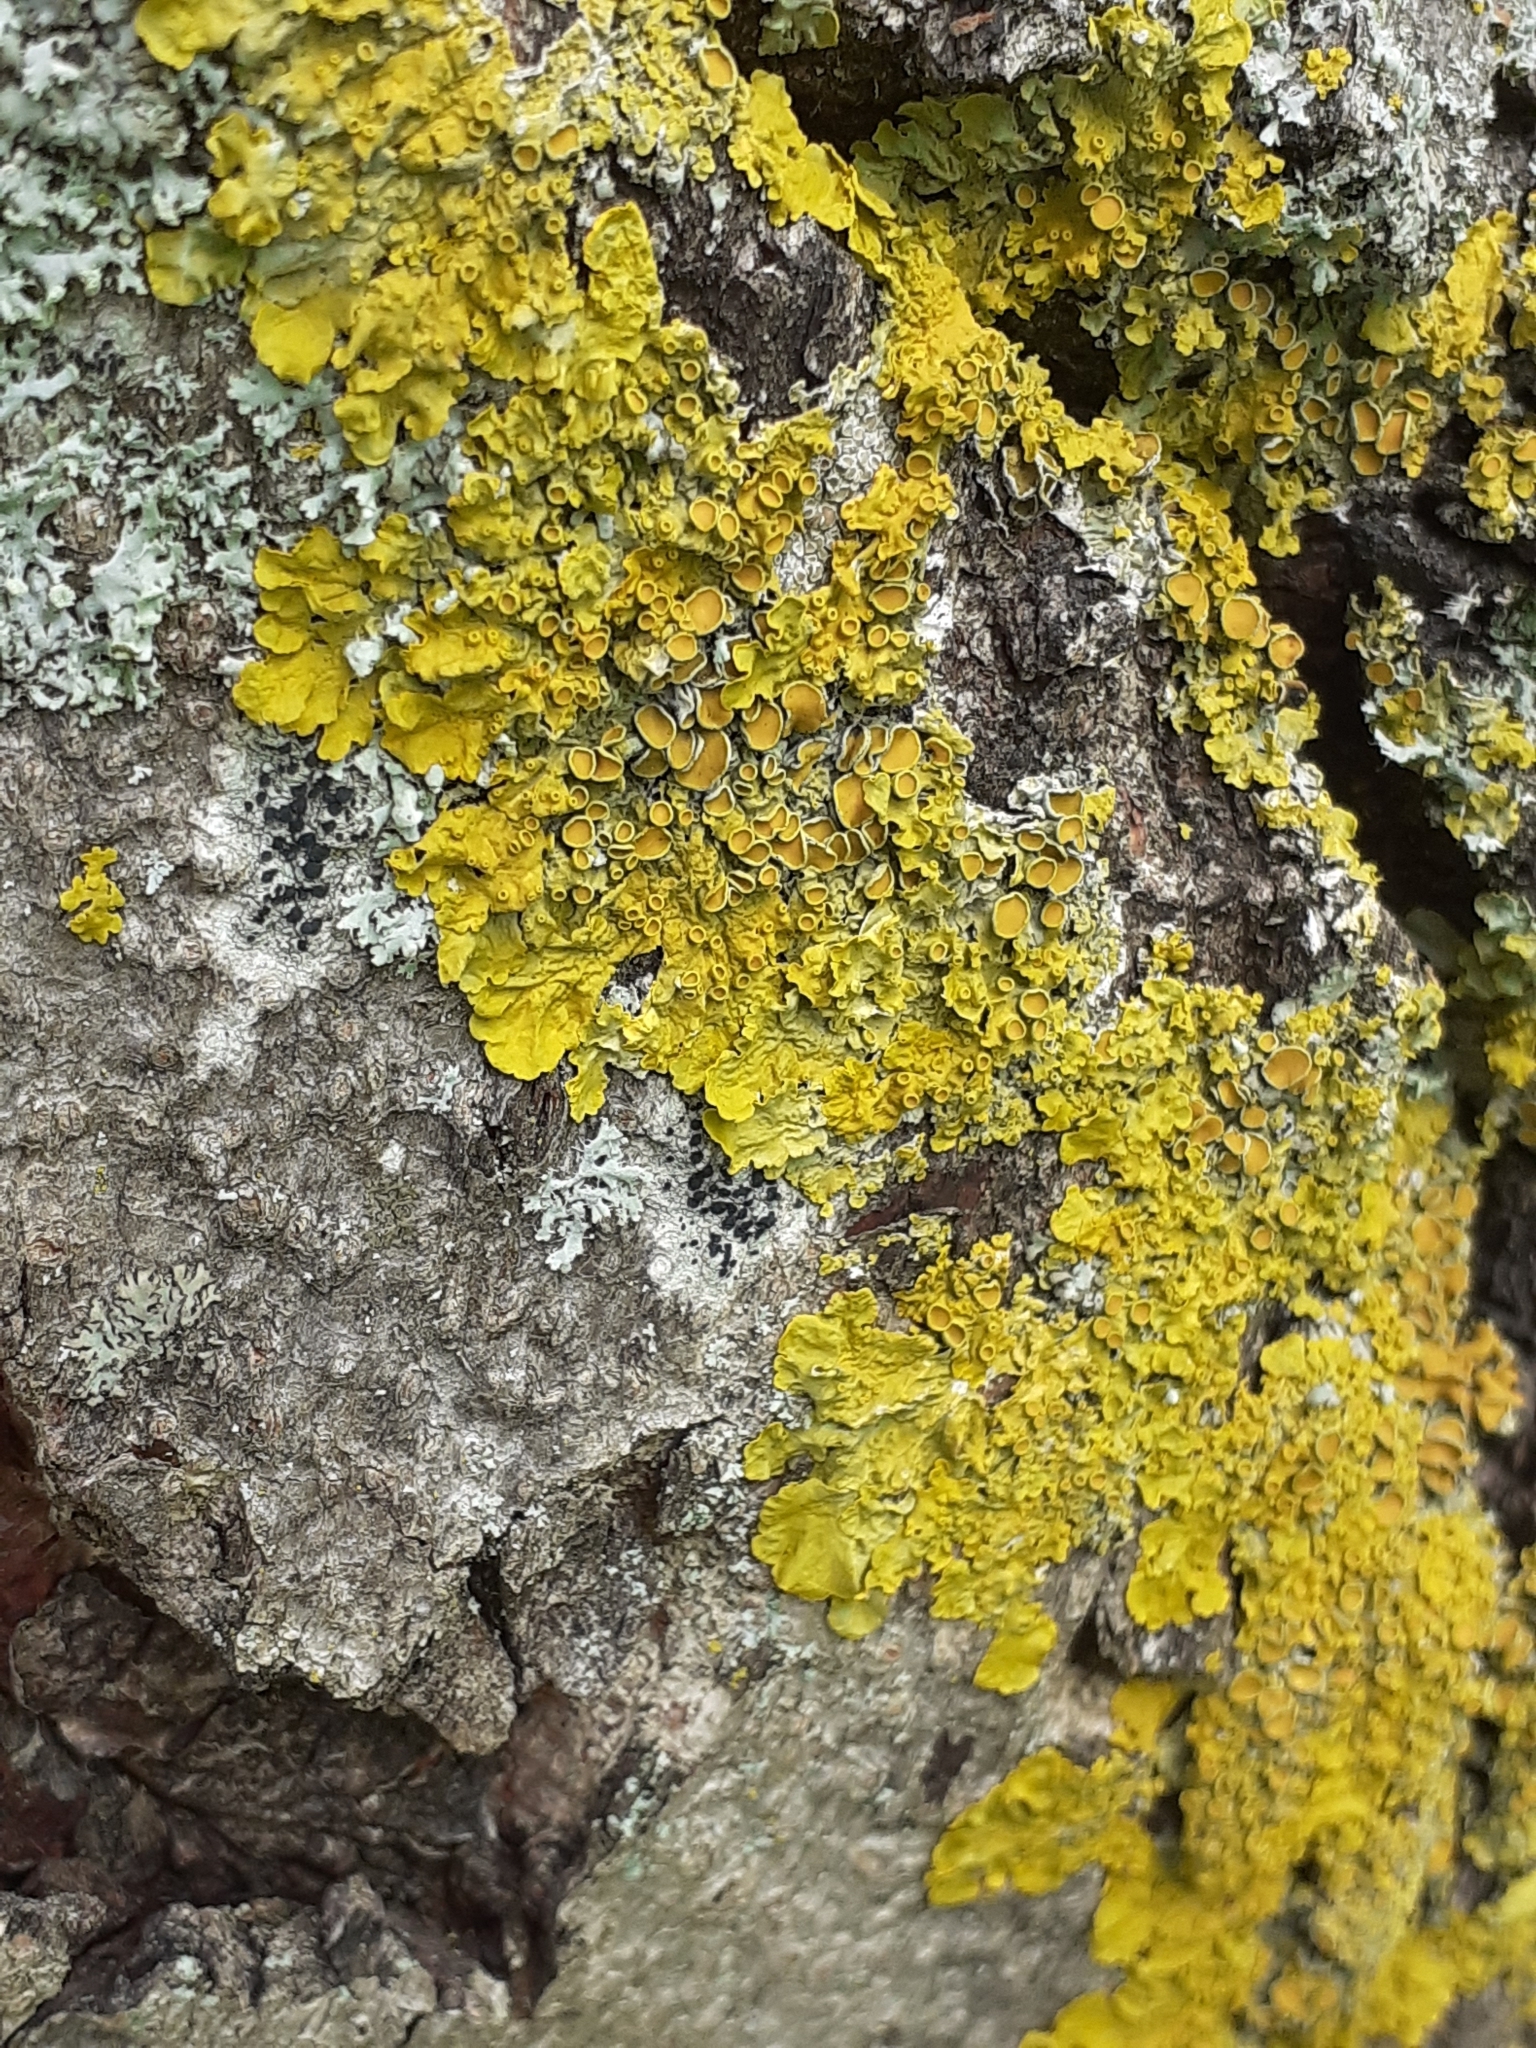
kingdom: Fungi
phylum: Ascomycota
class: Lecanoromycetes
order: Teloschistales
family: Teloschistaceae
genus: Xanthoria
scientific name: Xanthoria parietina
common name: Common orange lichen
